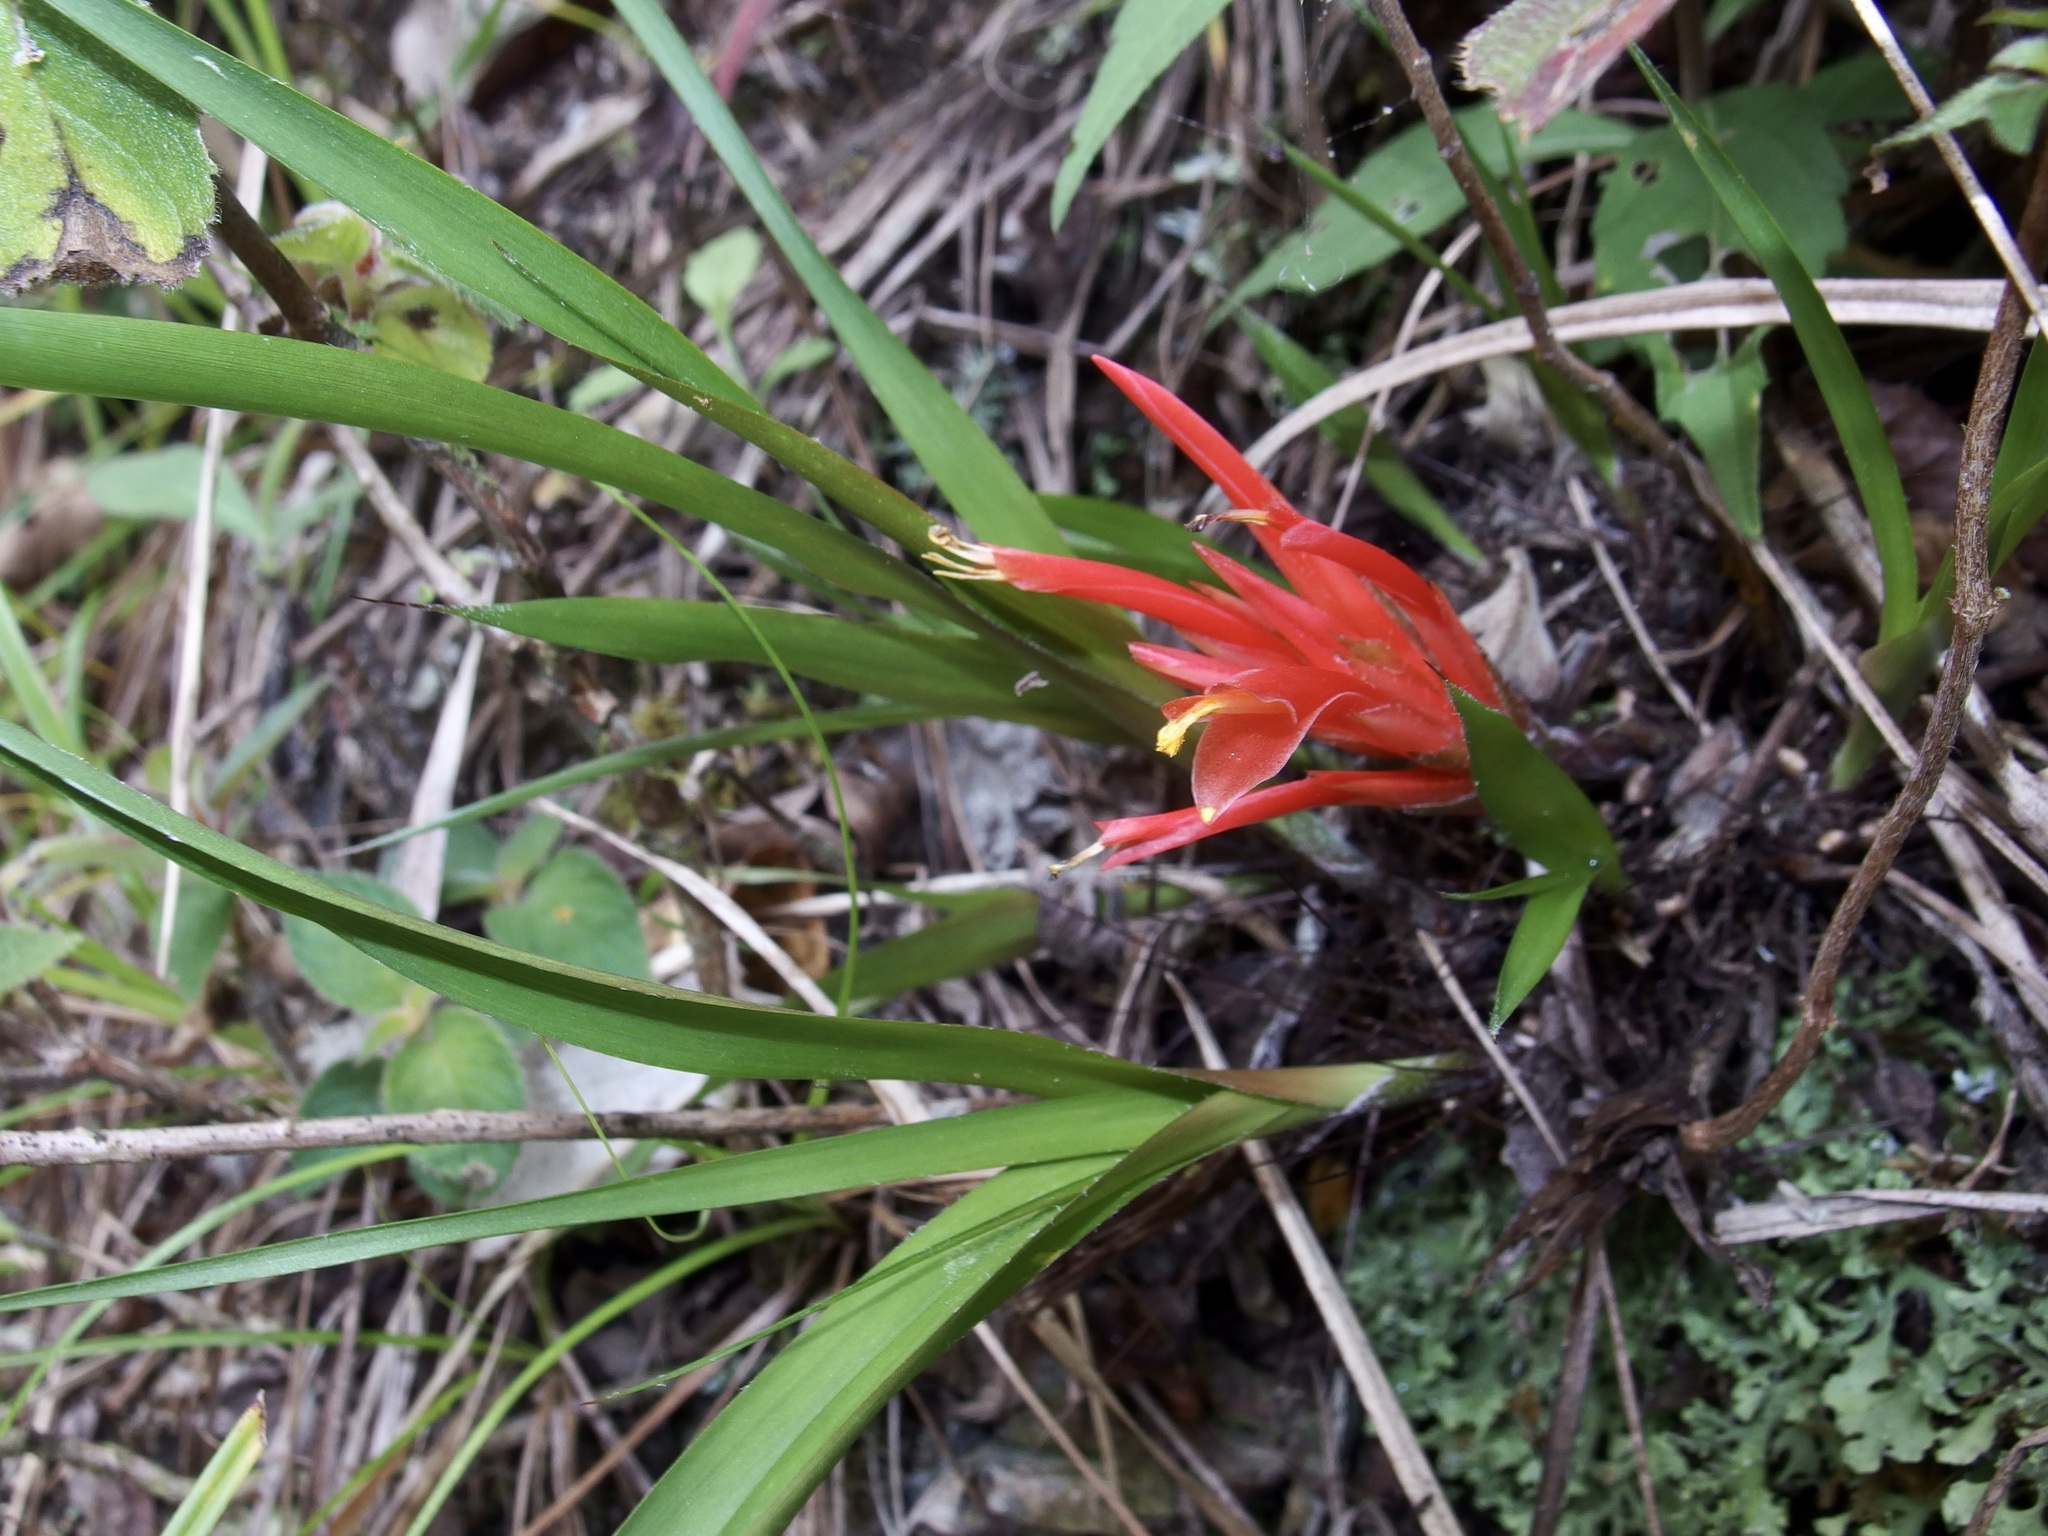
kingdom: Plantae
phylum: Tracheophyta
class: Liliopsida
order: Poales
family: Bromeliaceae
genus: Pitcairnia
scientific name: Pitcairnia heterophylla
